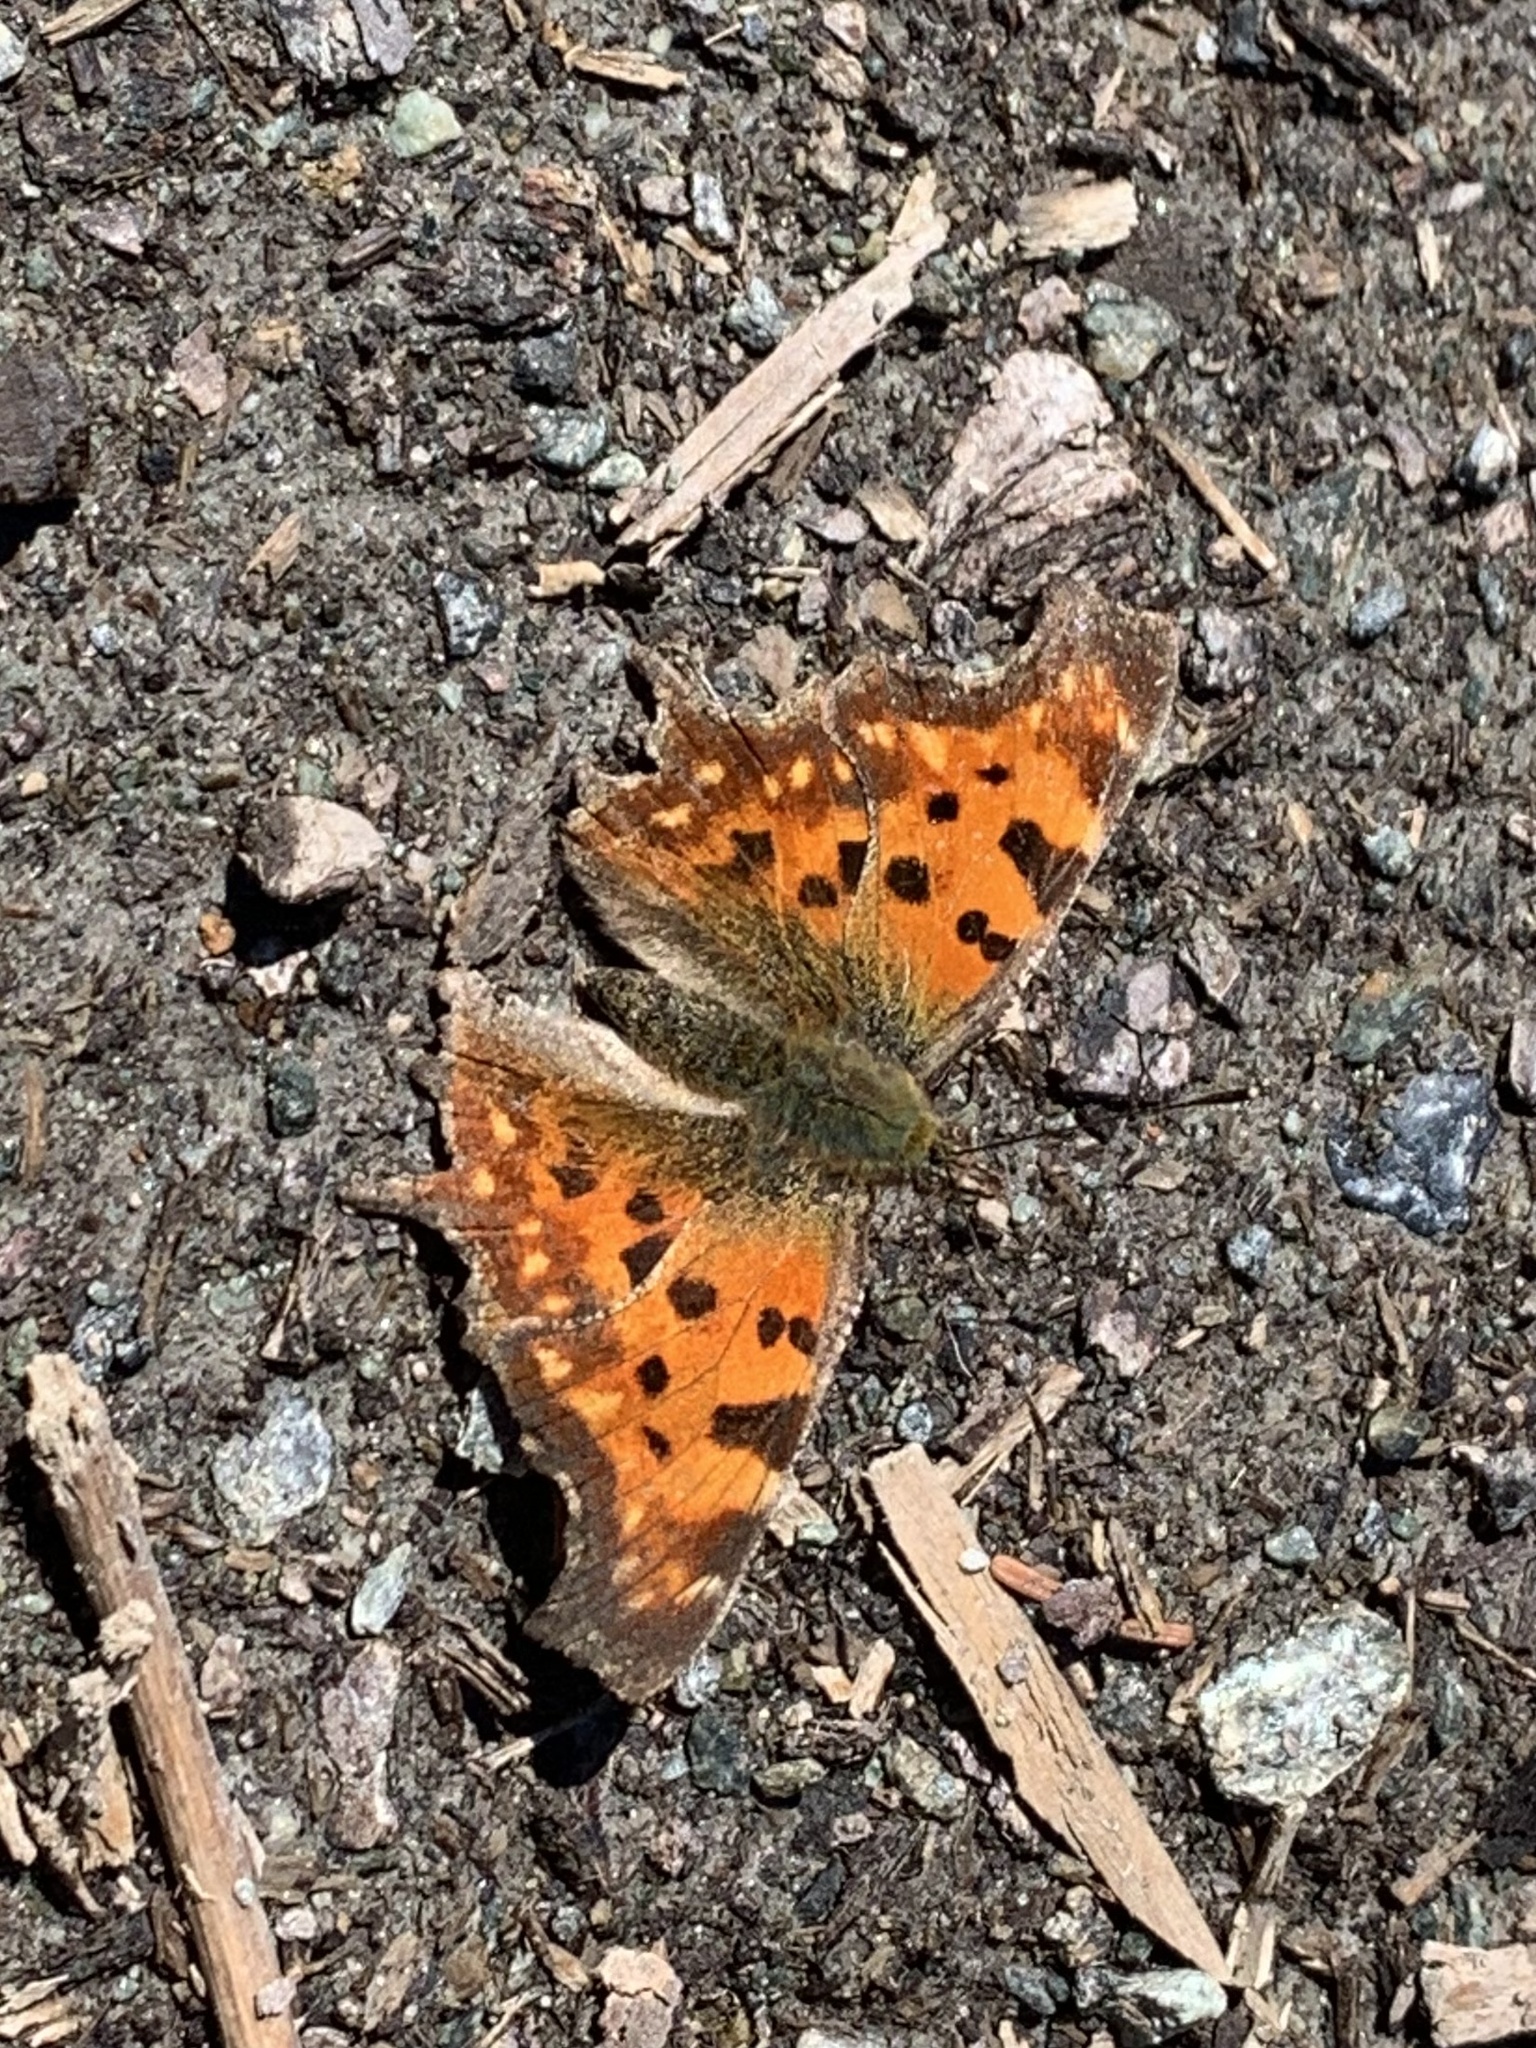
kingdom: Animalia
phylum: Arthropoda
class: Insecta
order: Lepidoptera
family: Nymphalidae
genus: Polygonia
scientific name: Polygonia c-album
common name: Comma
